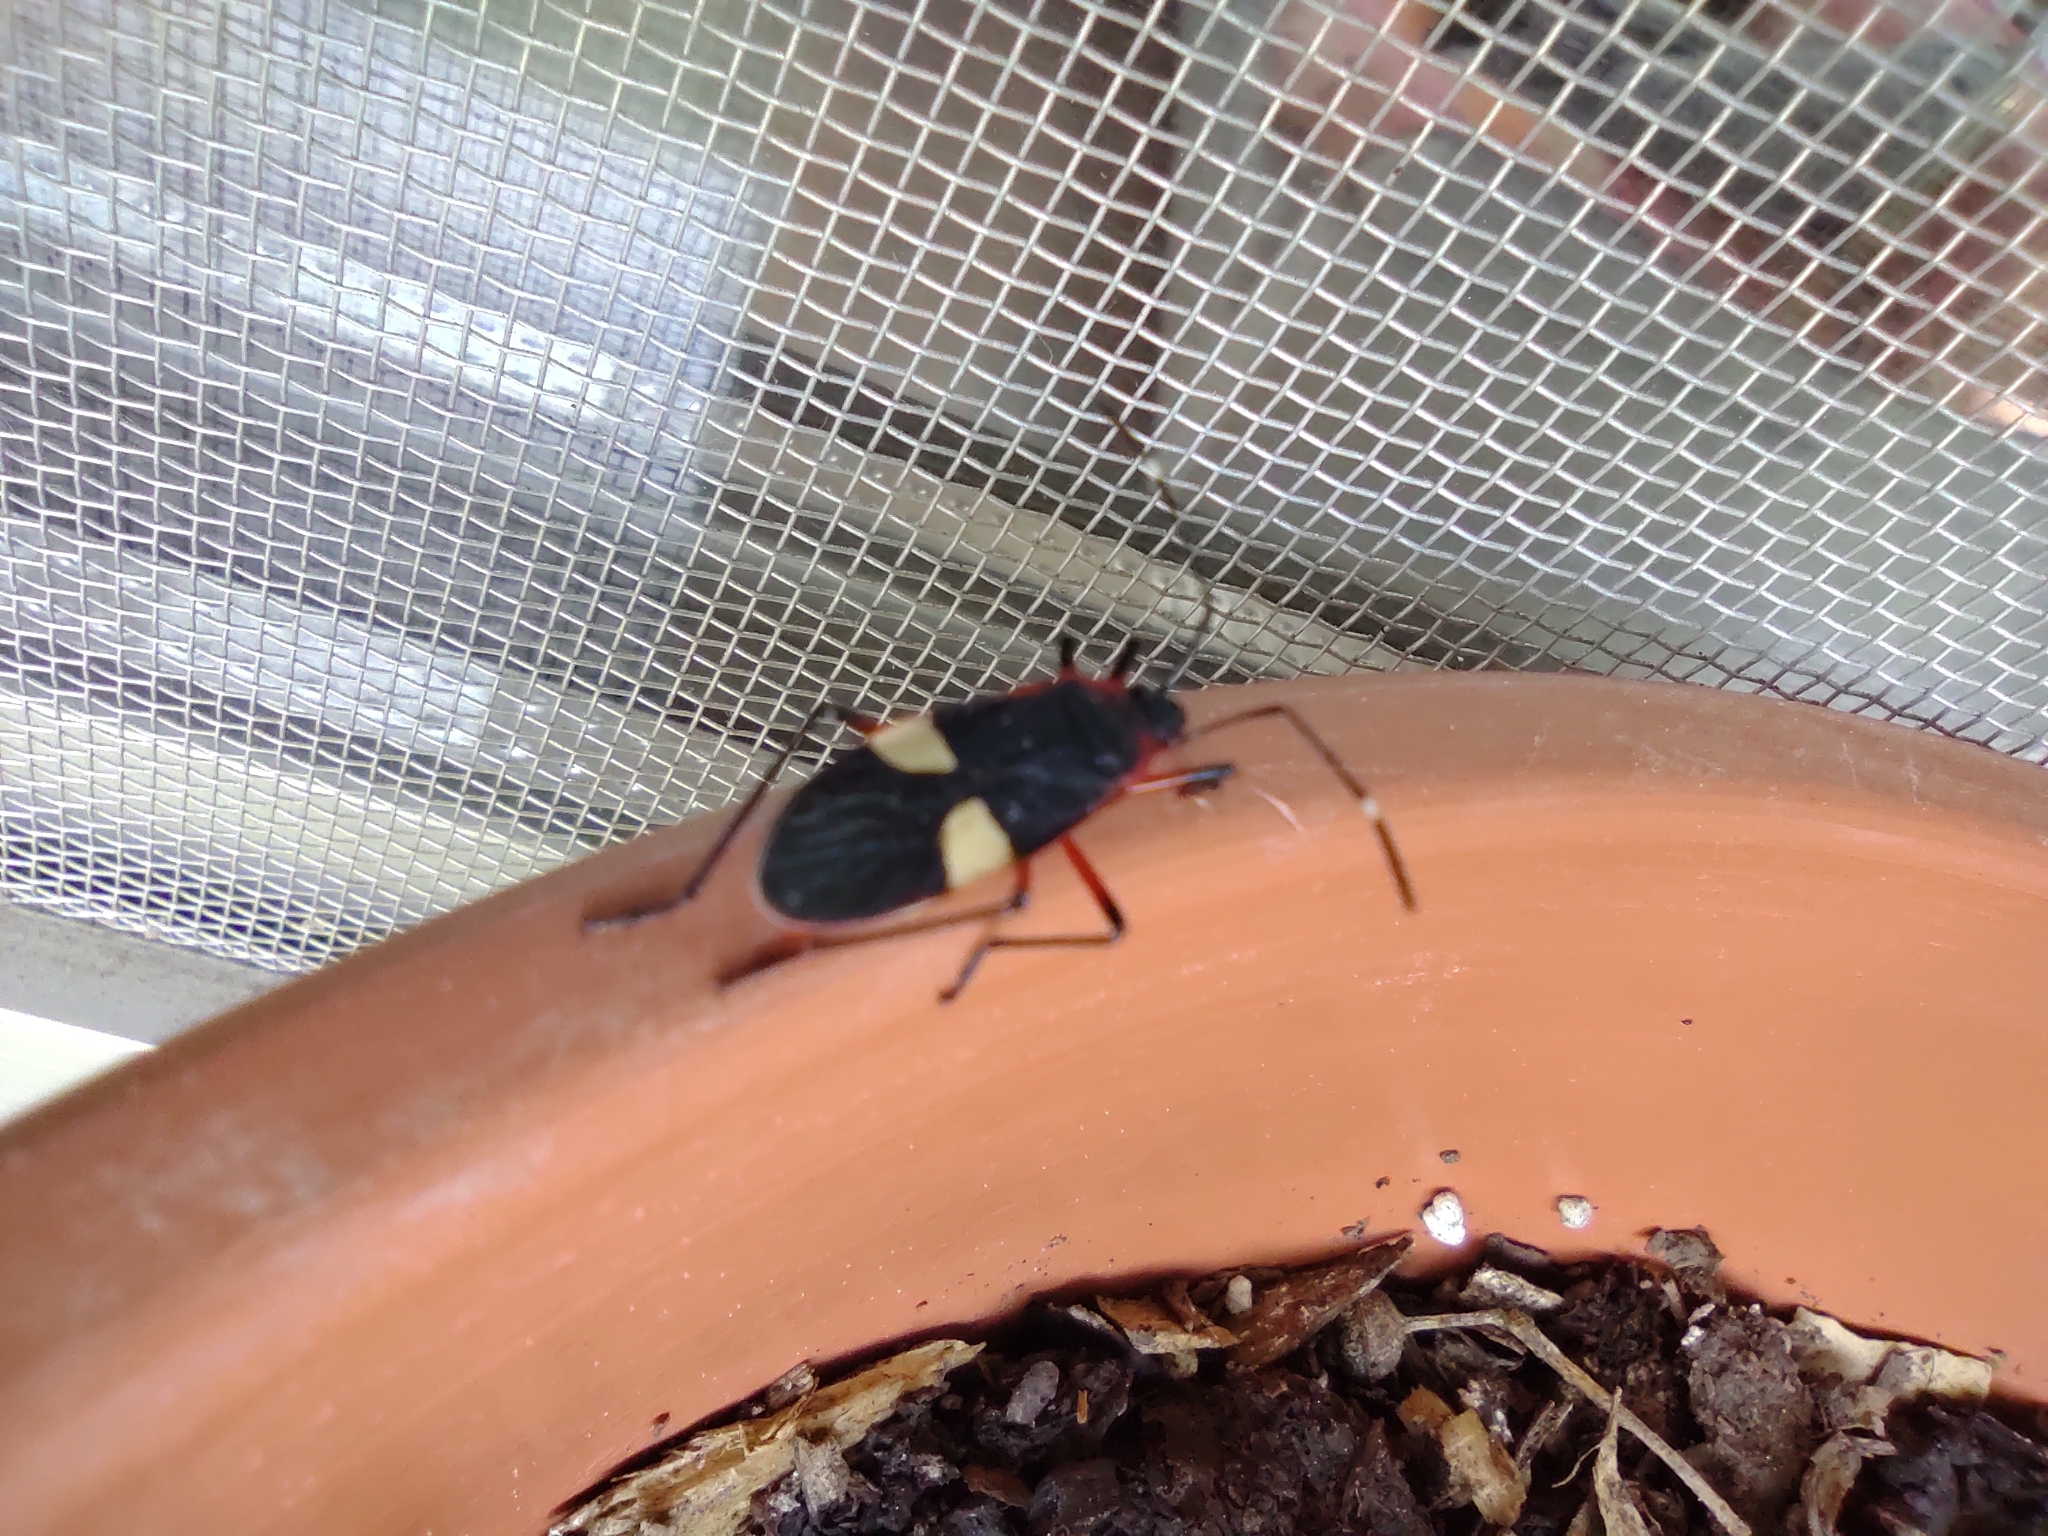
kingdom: Animalia
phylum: Arthropoda
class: Insecta
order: Hemiptera
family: Pyrrhocoridae
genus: Dysdercus
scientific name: Dysdercus albofasciatus
